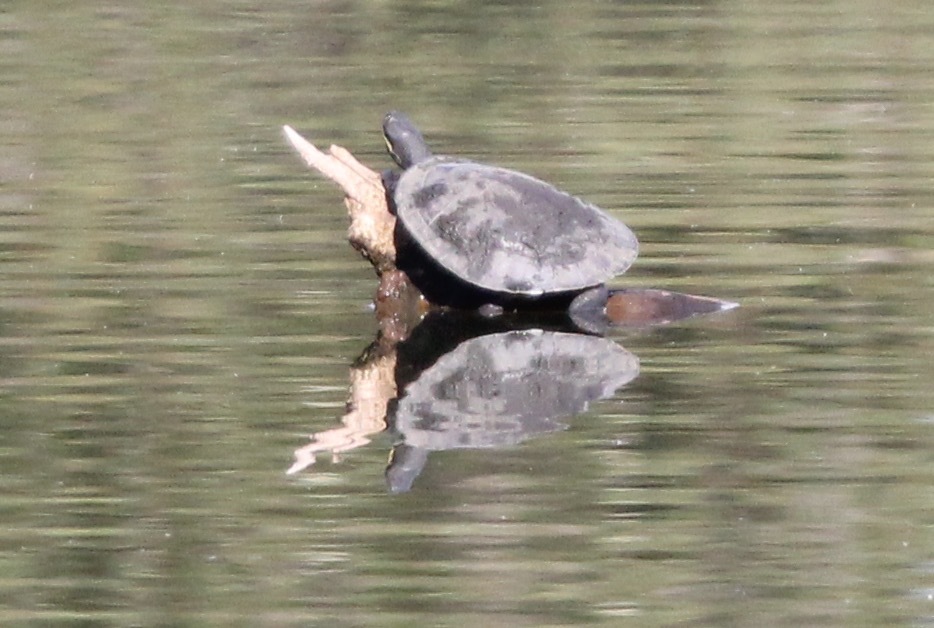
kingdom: Animalia
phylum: Chordata
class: Testudines
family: Chelidae
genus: Emydura
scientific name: Emydura macquarii
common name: Murray river turtle
